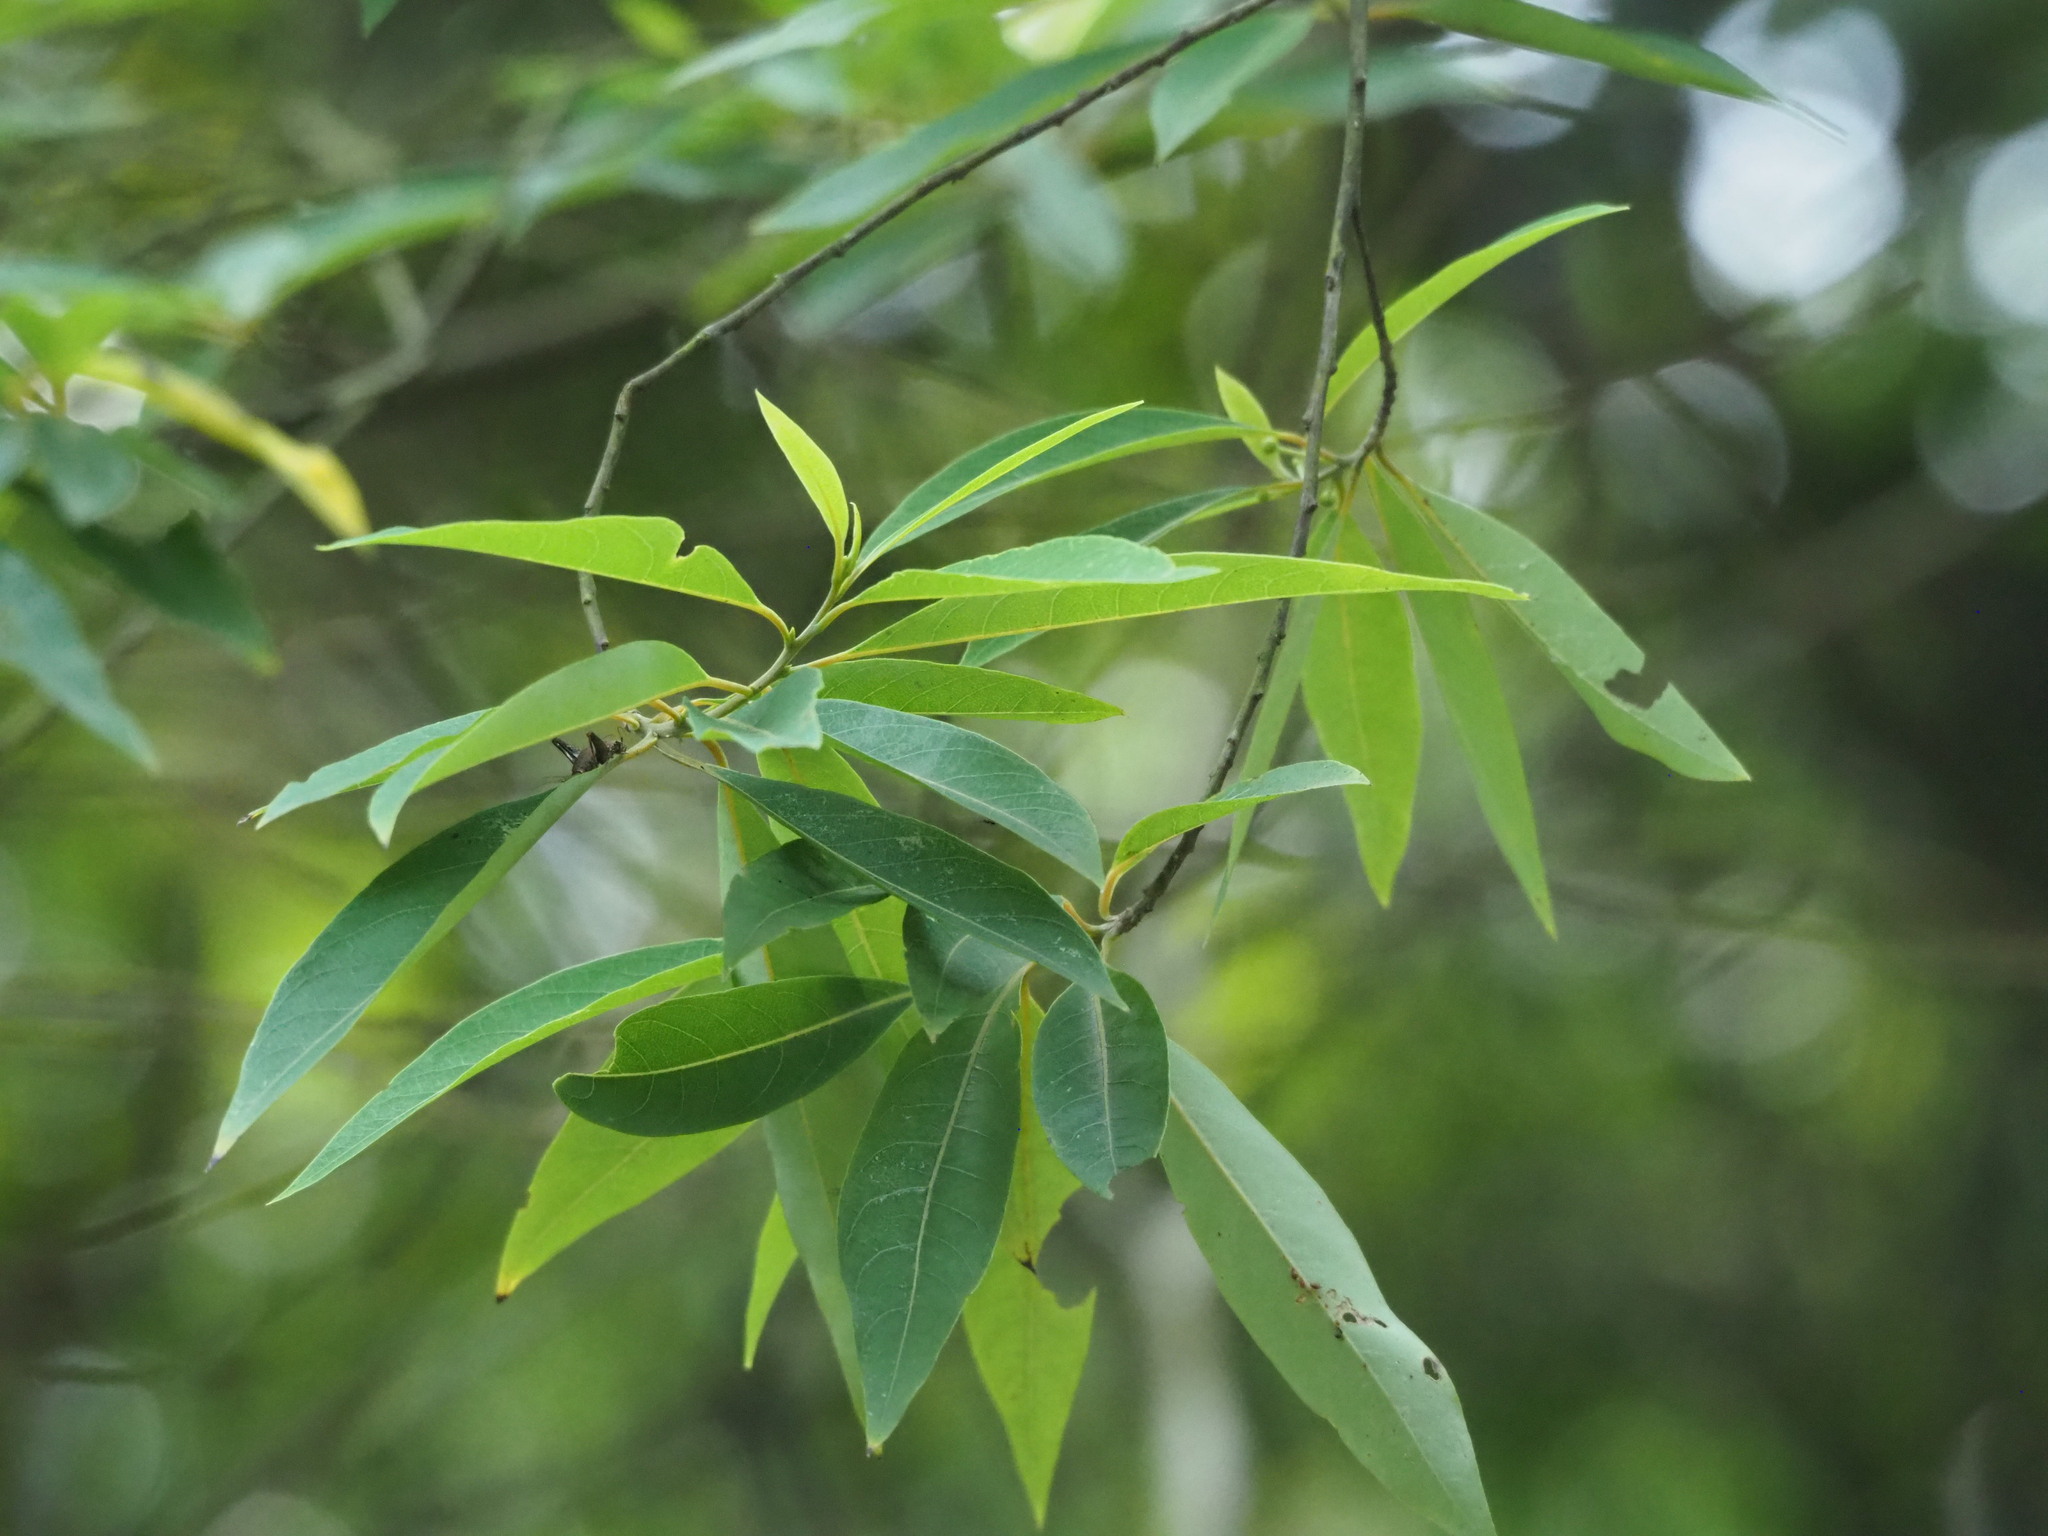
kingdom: Plantae
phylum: Tracheophyta
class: Magnoliopsida
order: Laurales
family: Lauraceae
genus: Litsea
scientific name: Litsea cubeba
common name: Mountain-pepper
